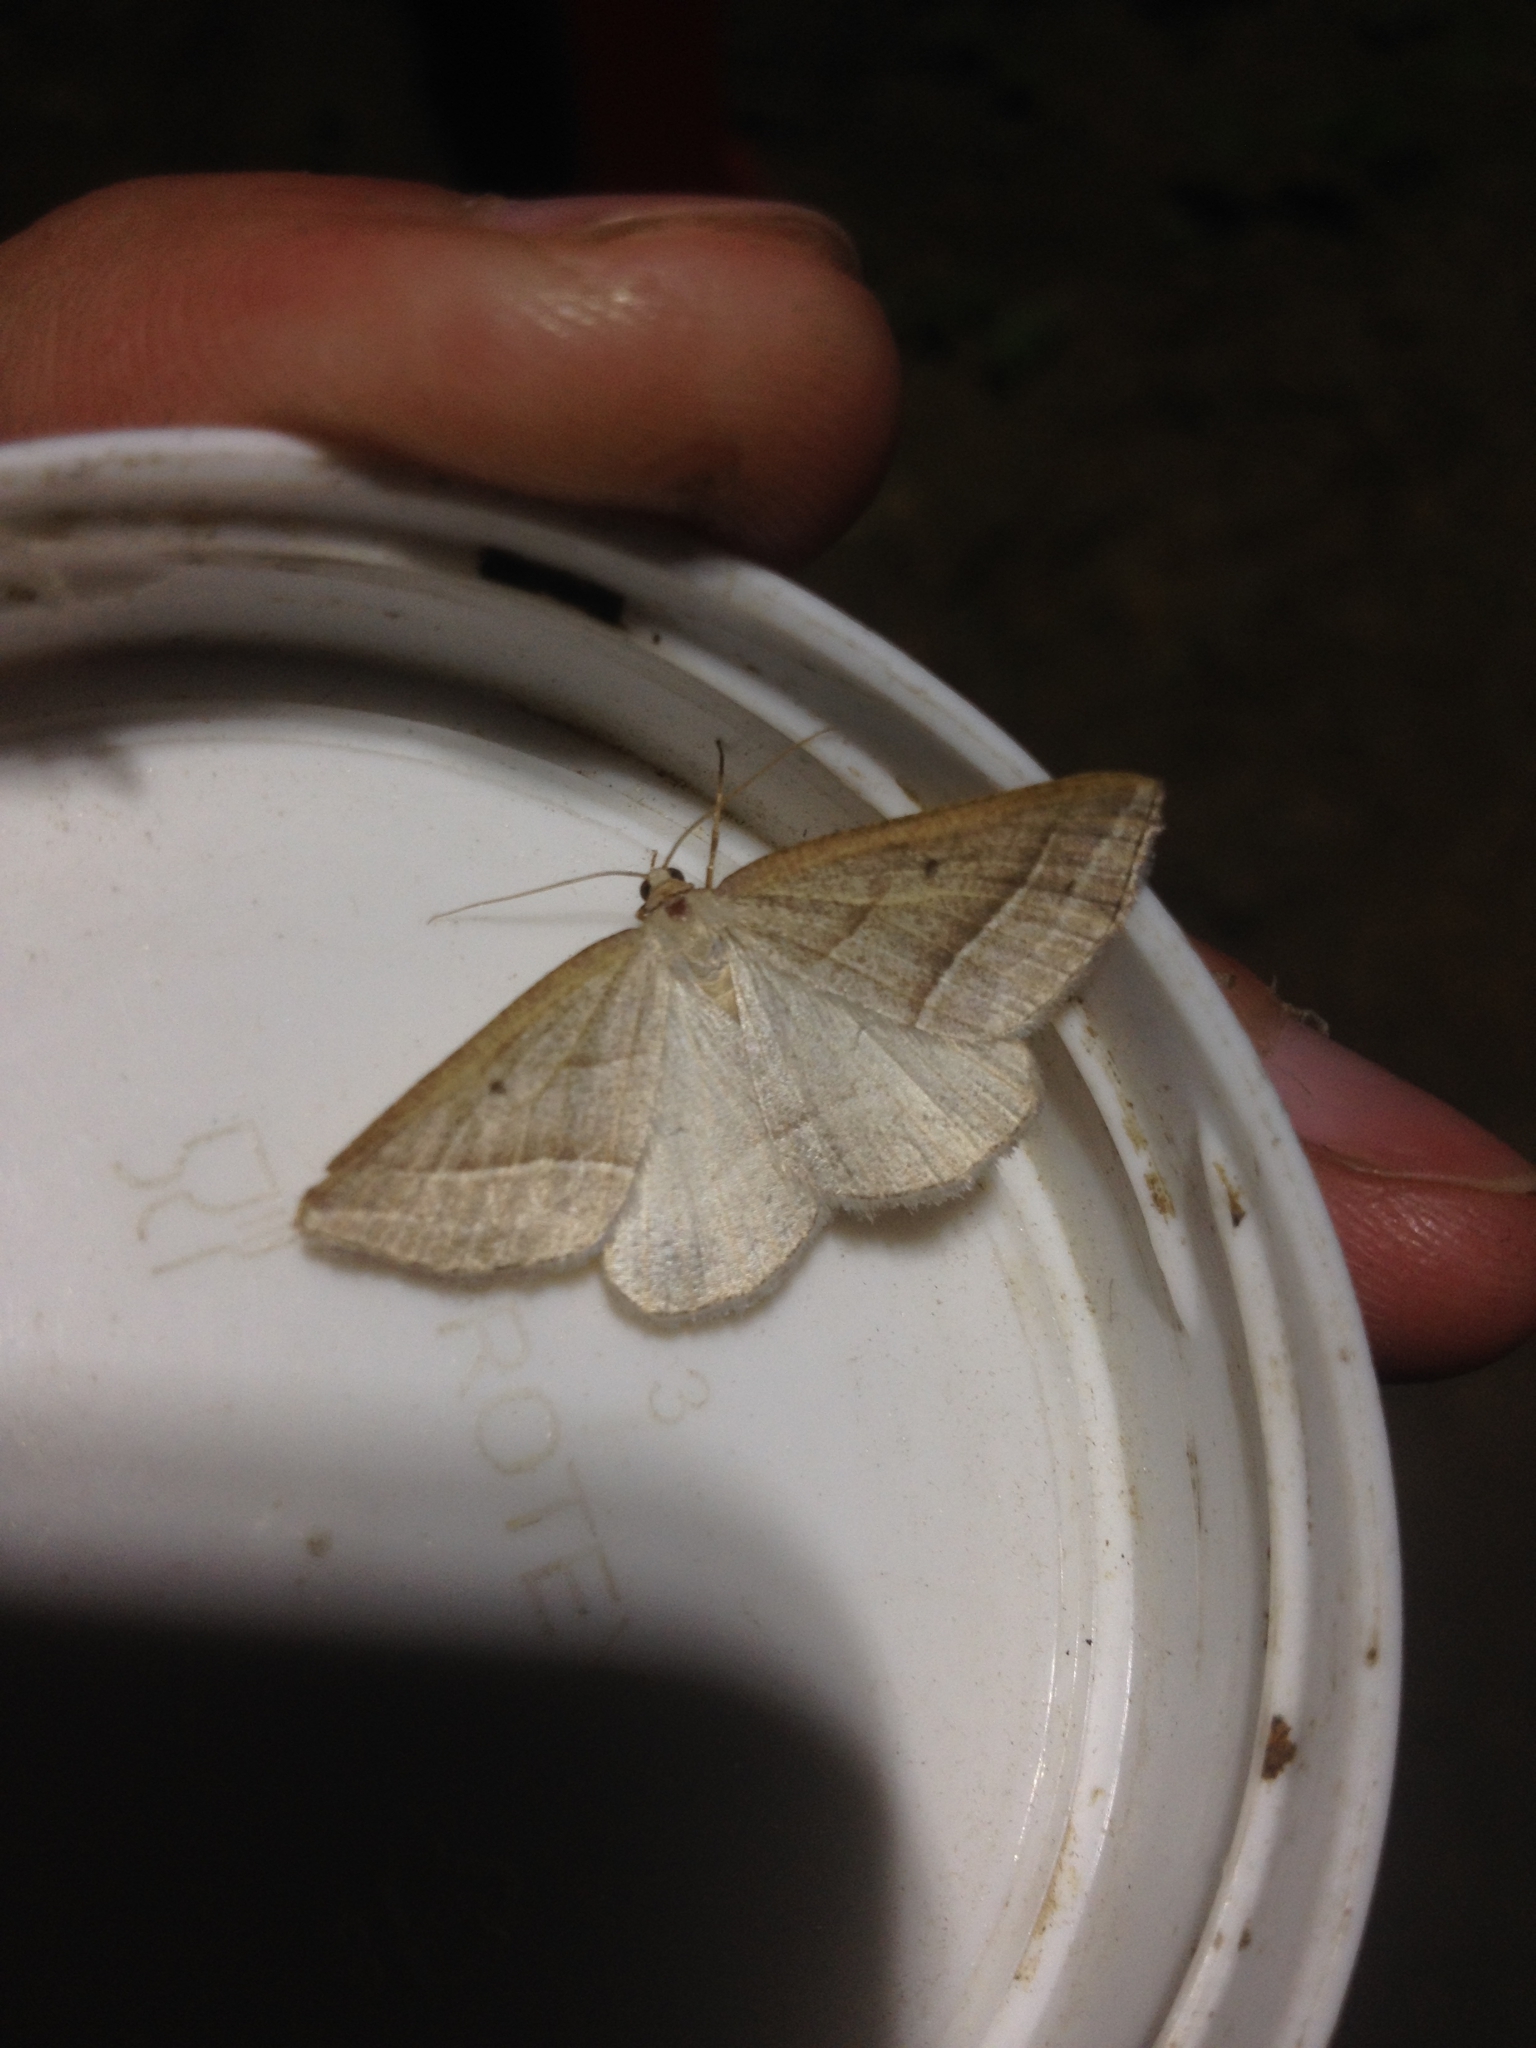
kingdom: Animalia
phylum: Arthropoda
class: Insecta
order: Lepidoptera
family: Pterophoridae
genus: Pterophorus
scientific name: Pterophorus Petrophora chlorosata
